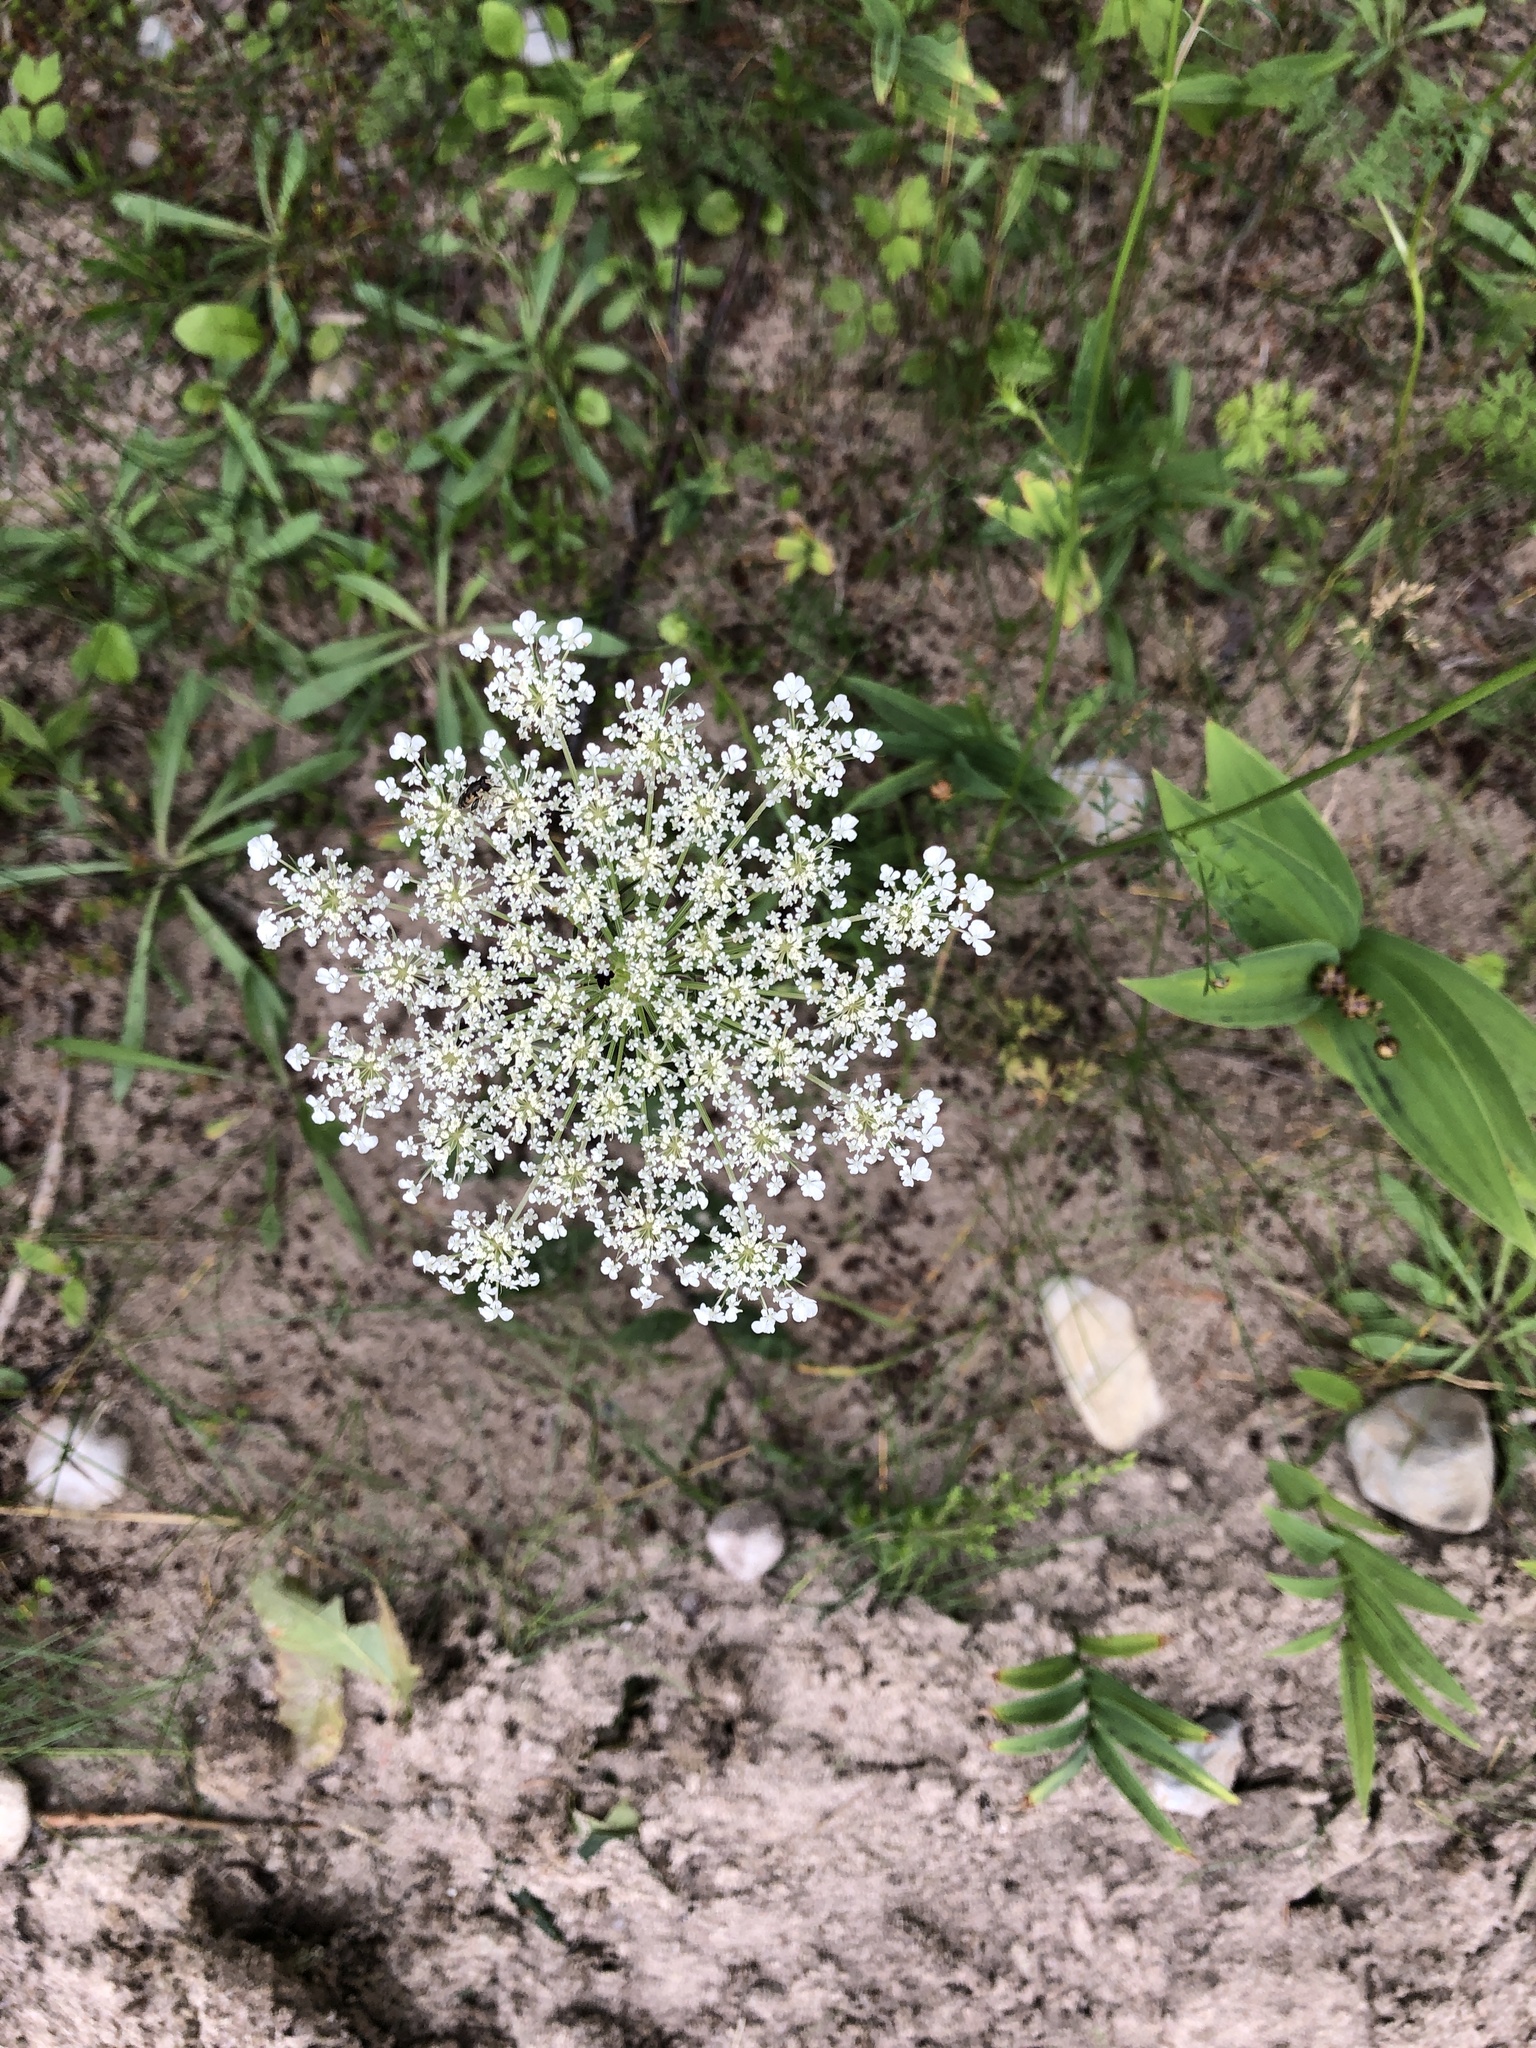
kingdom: Plantae
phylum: Tracheophyta
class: Magnoliopsida
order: Apiales
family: Apiaceae
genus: Daucus
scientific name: Daucus carota
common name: Wild carrot
